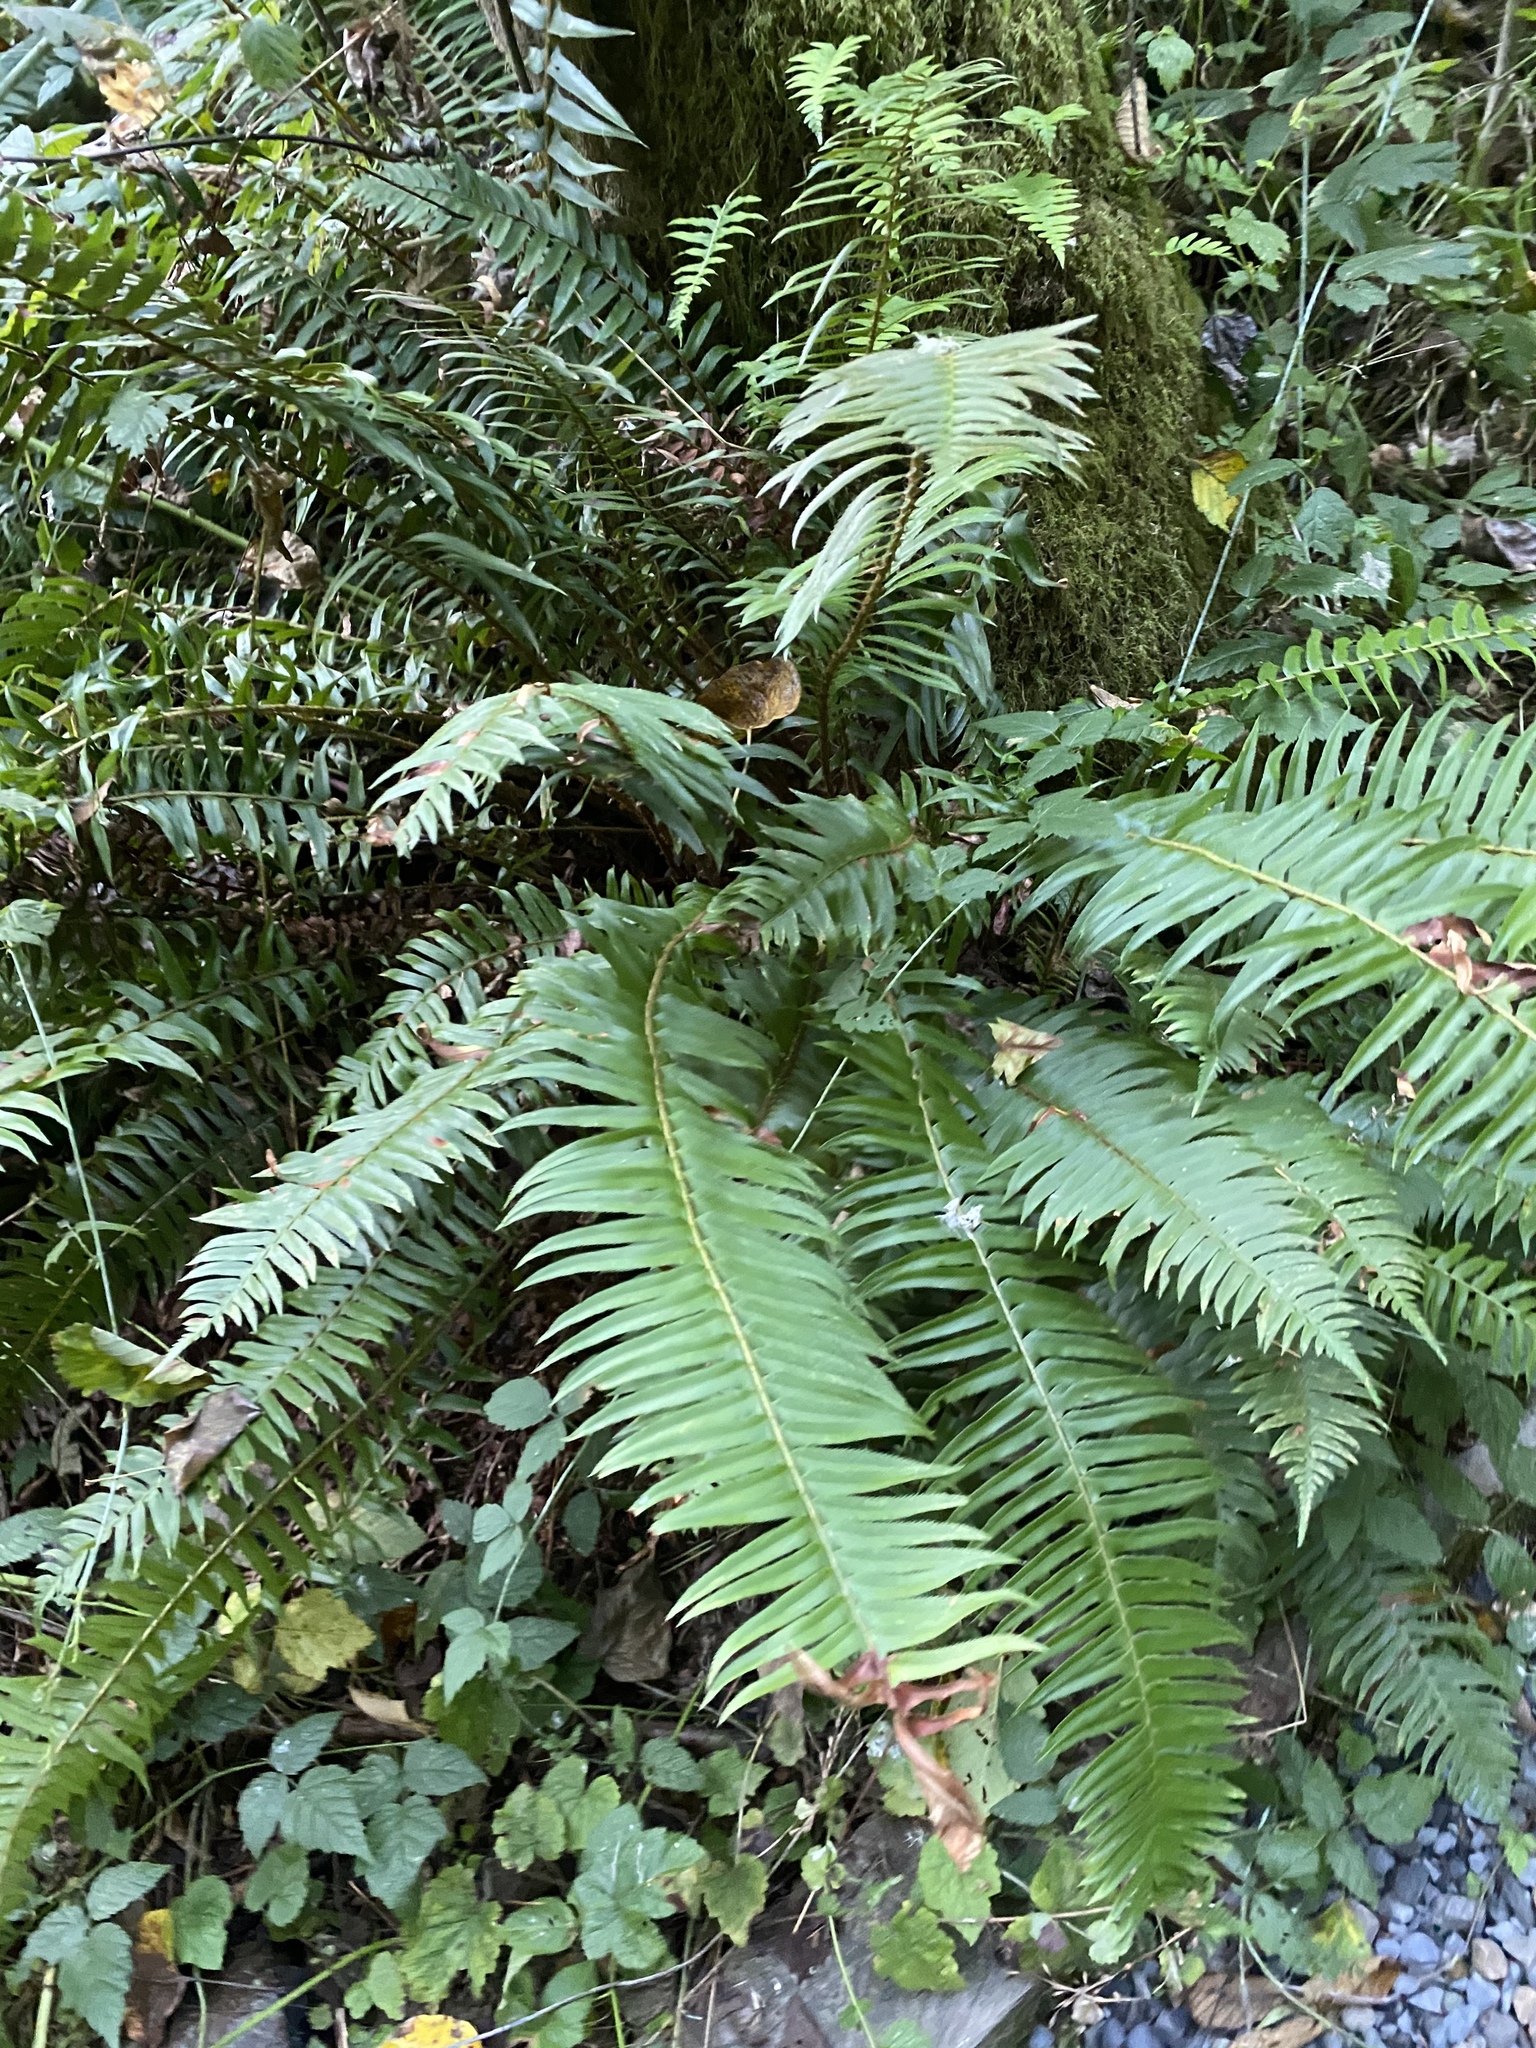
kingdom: Plantae
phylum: Tracheophyta
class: Polypodiopsida
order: Polypodiales
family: Dryopteridaceae
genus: Polystichum
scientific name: Polystichum munitum
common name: Western sword-fern
